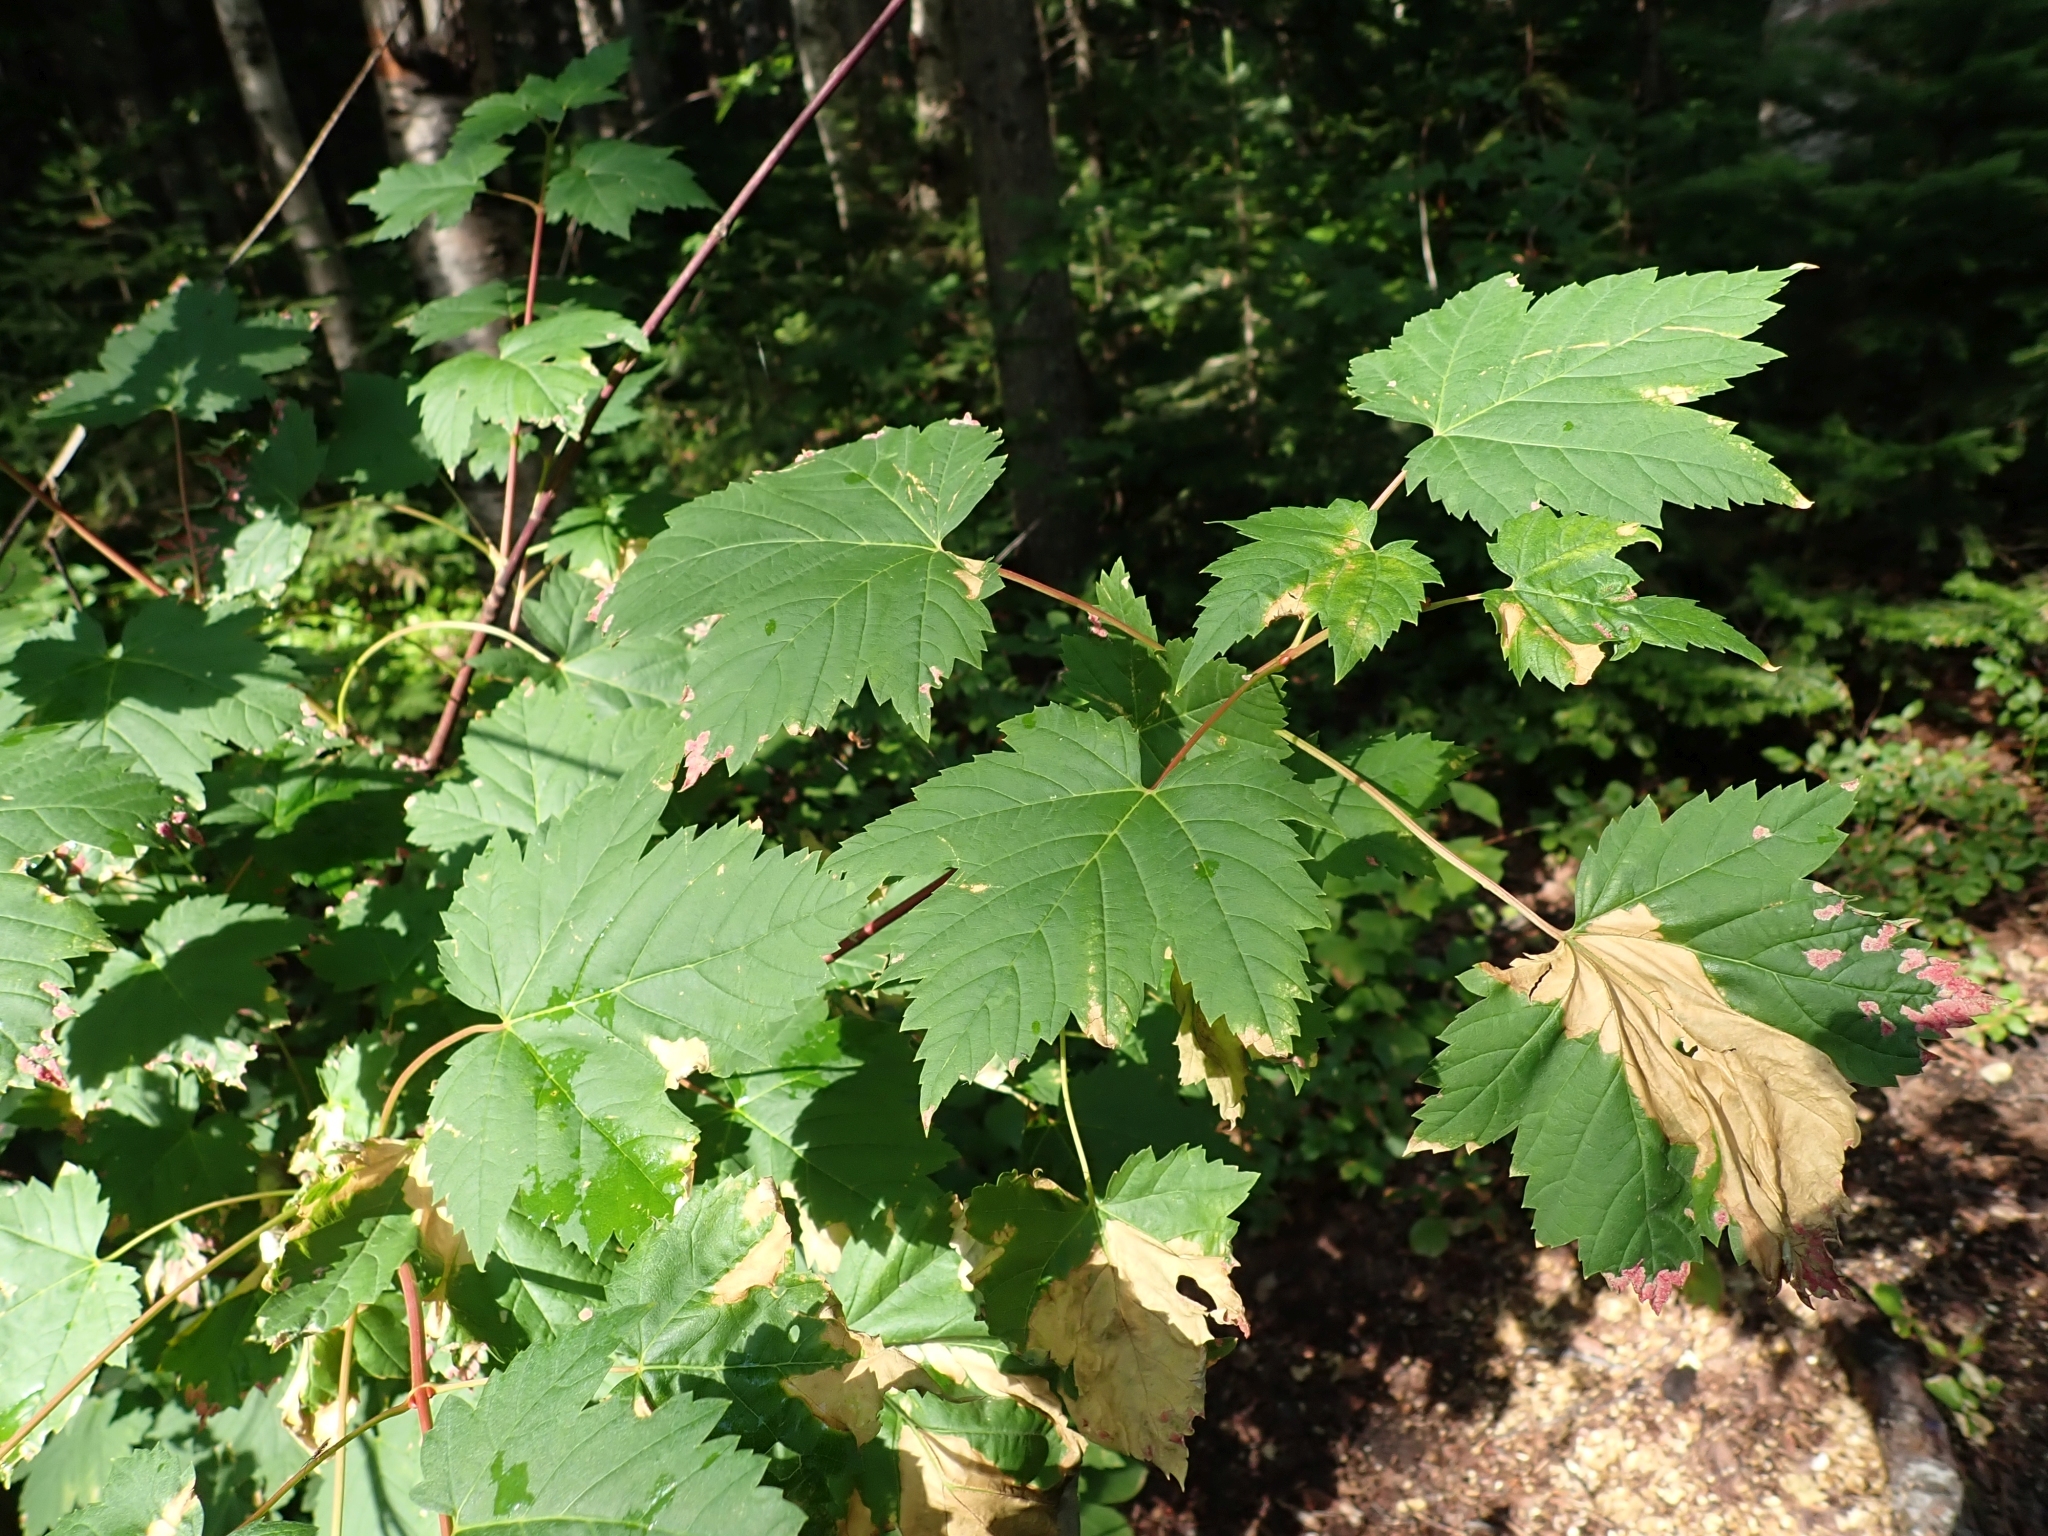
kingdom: Plantae
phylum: Tracheophyta
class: Magnoliopsida
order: Sapindales
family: Sapindaceae
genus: Acer
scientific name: Acer glabrum
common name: Rocky mountain maple
